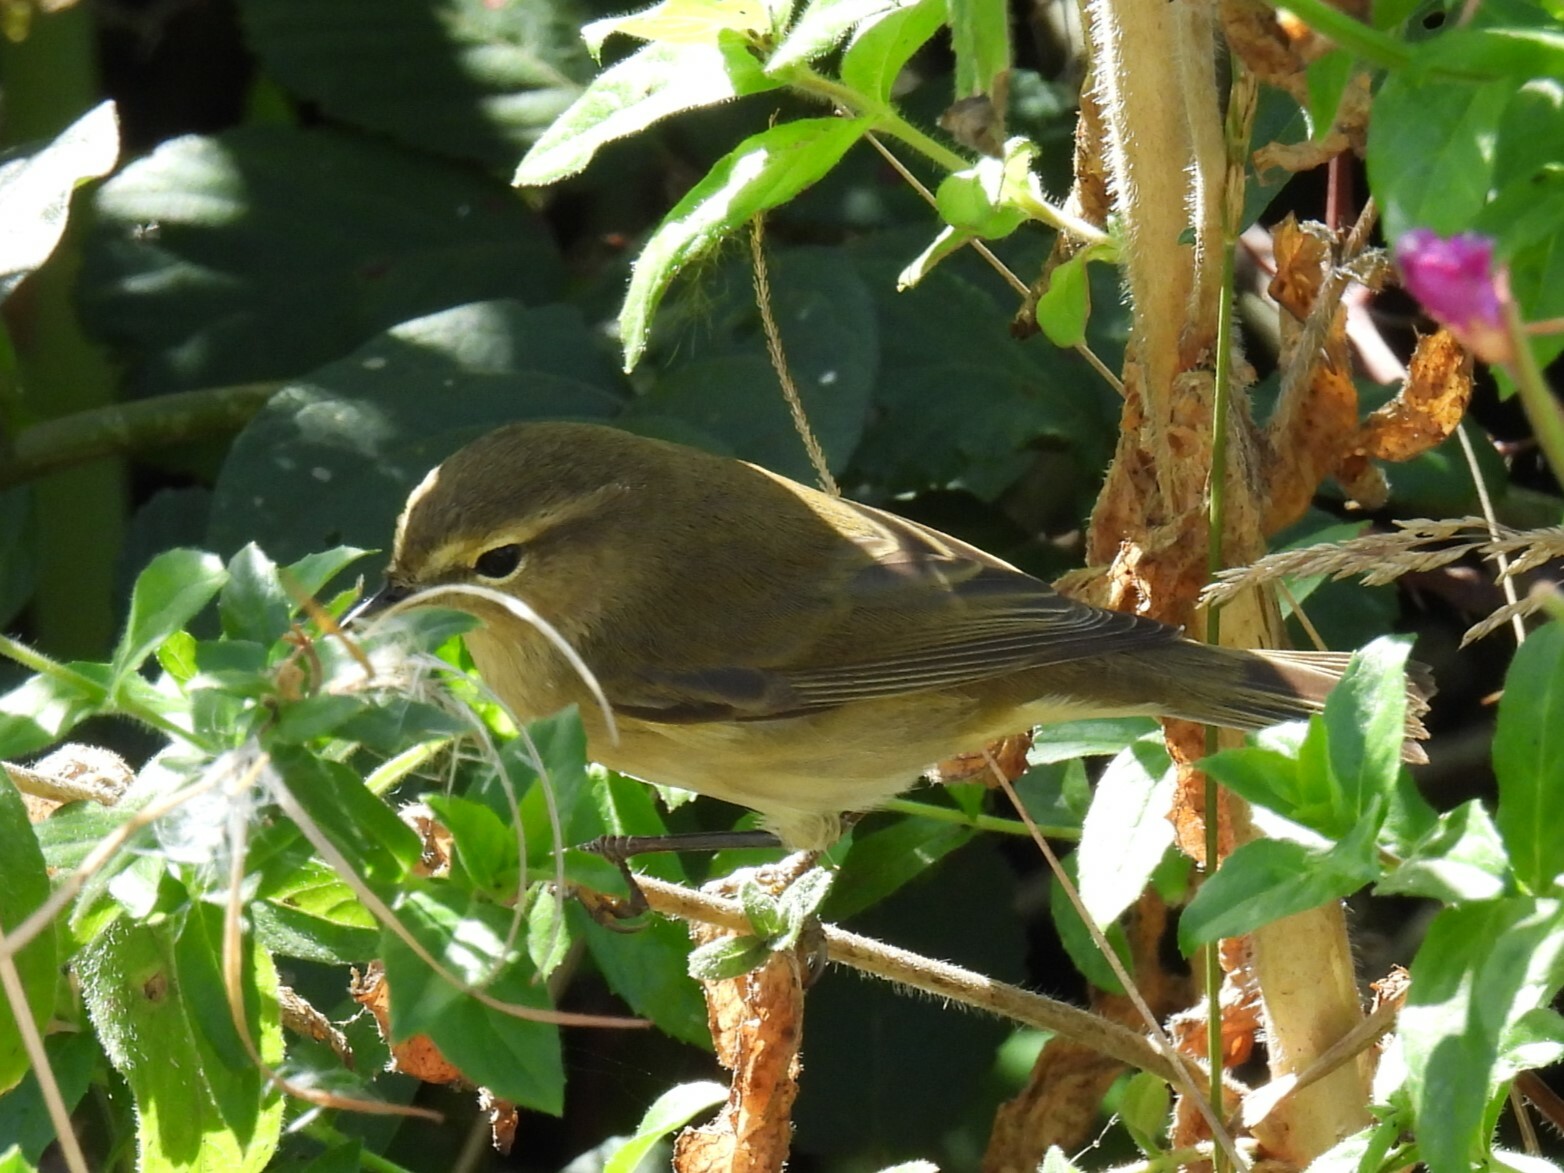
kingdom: Animalia
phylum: Chordata
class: Aves
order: Passeriformes
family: Phylloscopidae
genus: Phylloscopus
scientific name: Phylloscopus collybita
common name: Common chiffchaff
